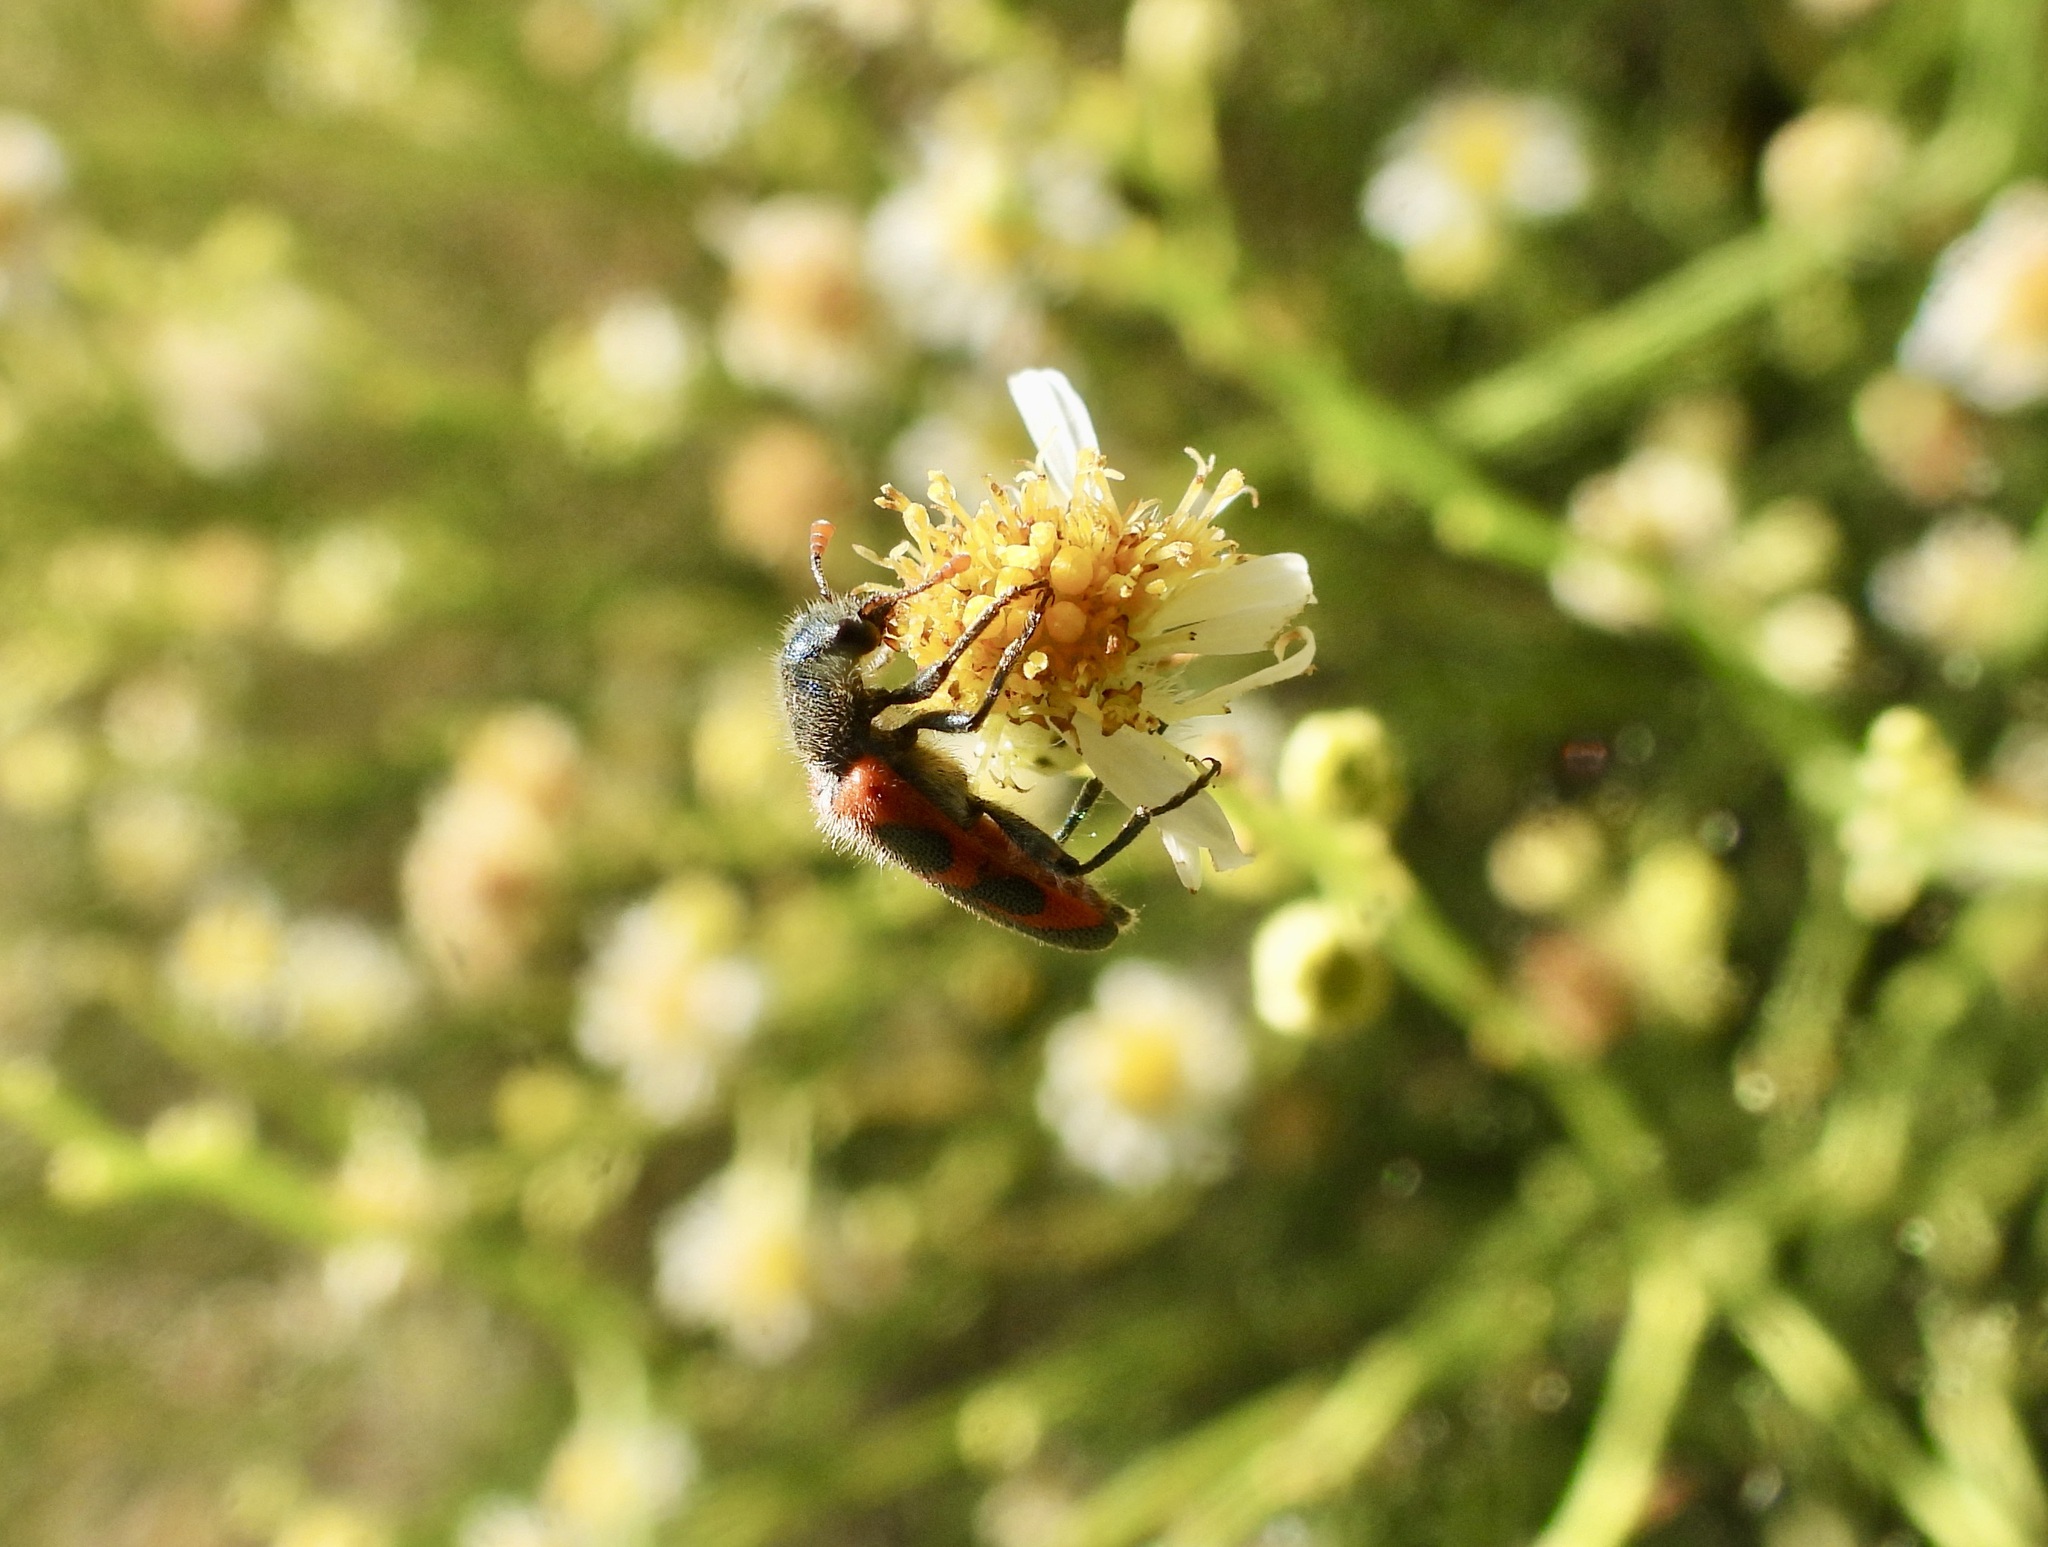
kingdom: Animalia
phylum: Arthropoda
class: Insecta
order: Coleoptera
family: Cleridae
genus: Trichodes
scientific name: Trichodes oresterus
